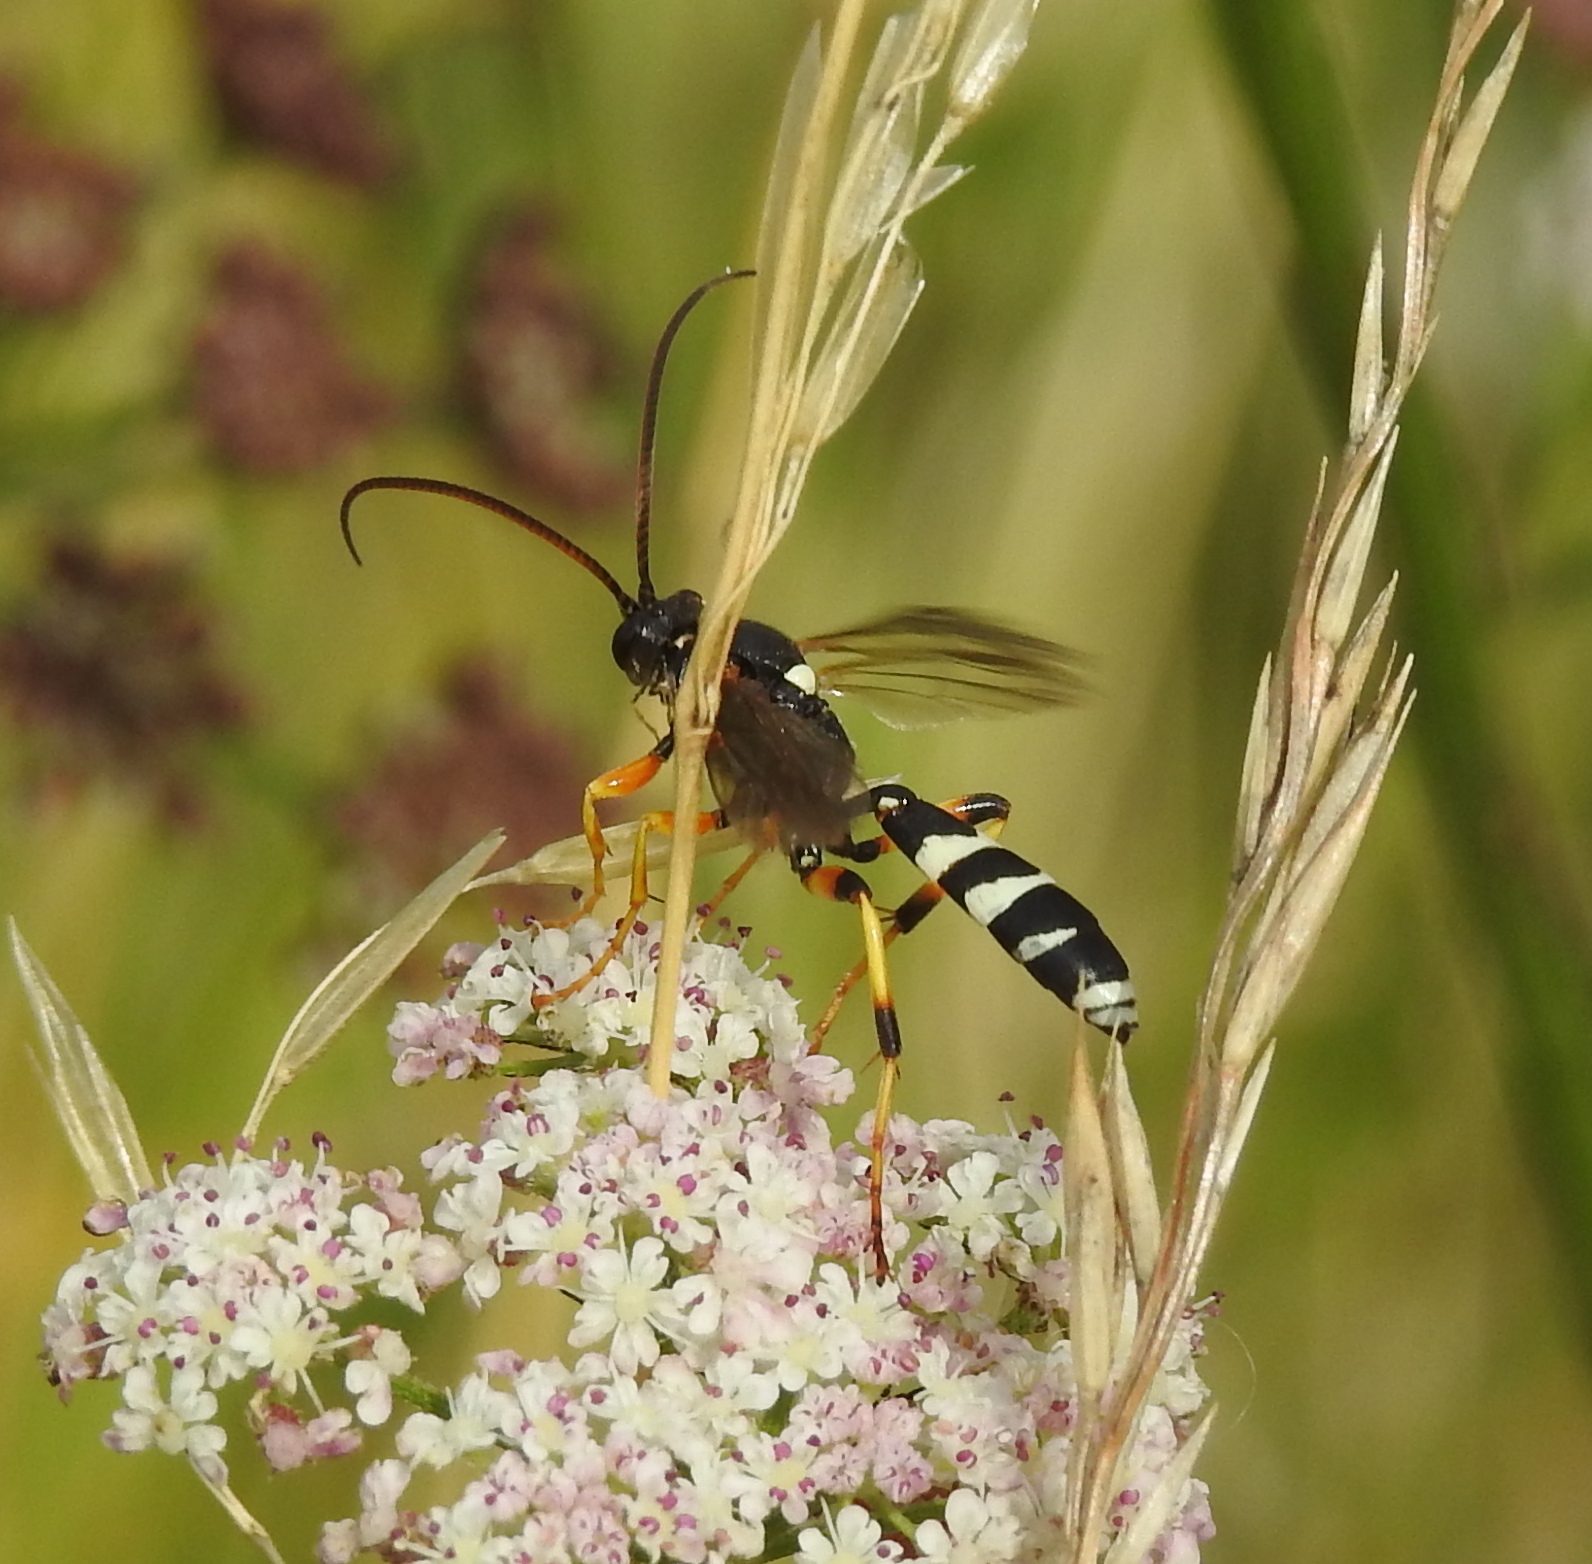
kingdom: Animalia
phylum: Arthropoda
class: Insecta
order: Hymenoptera
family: Ichneumonidae
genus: Ichneumon
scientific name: Ichneumon sarcitorius
